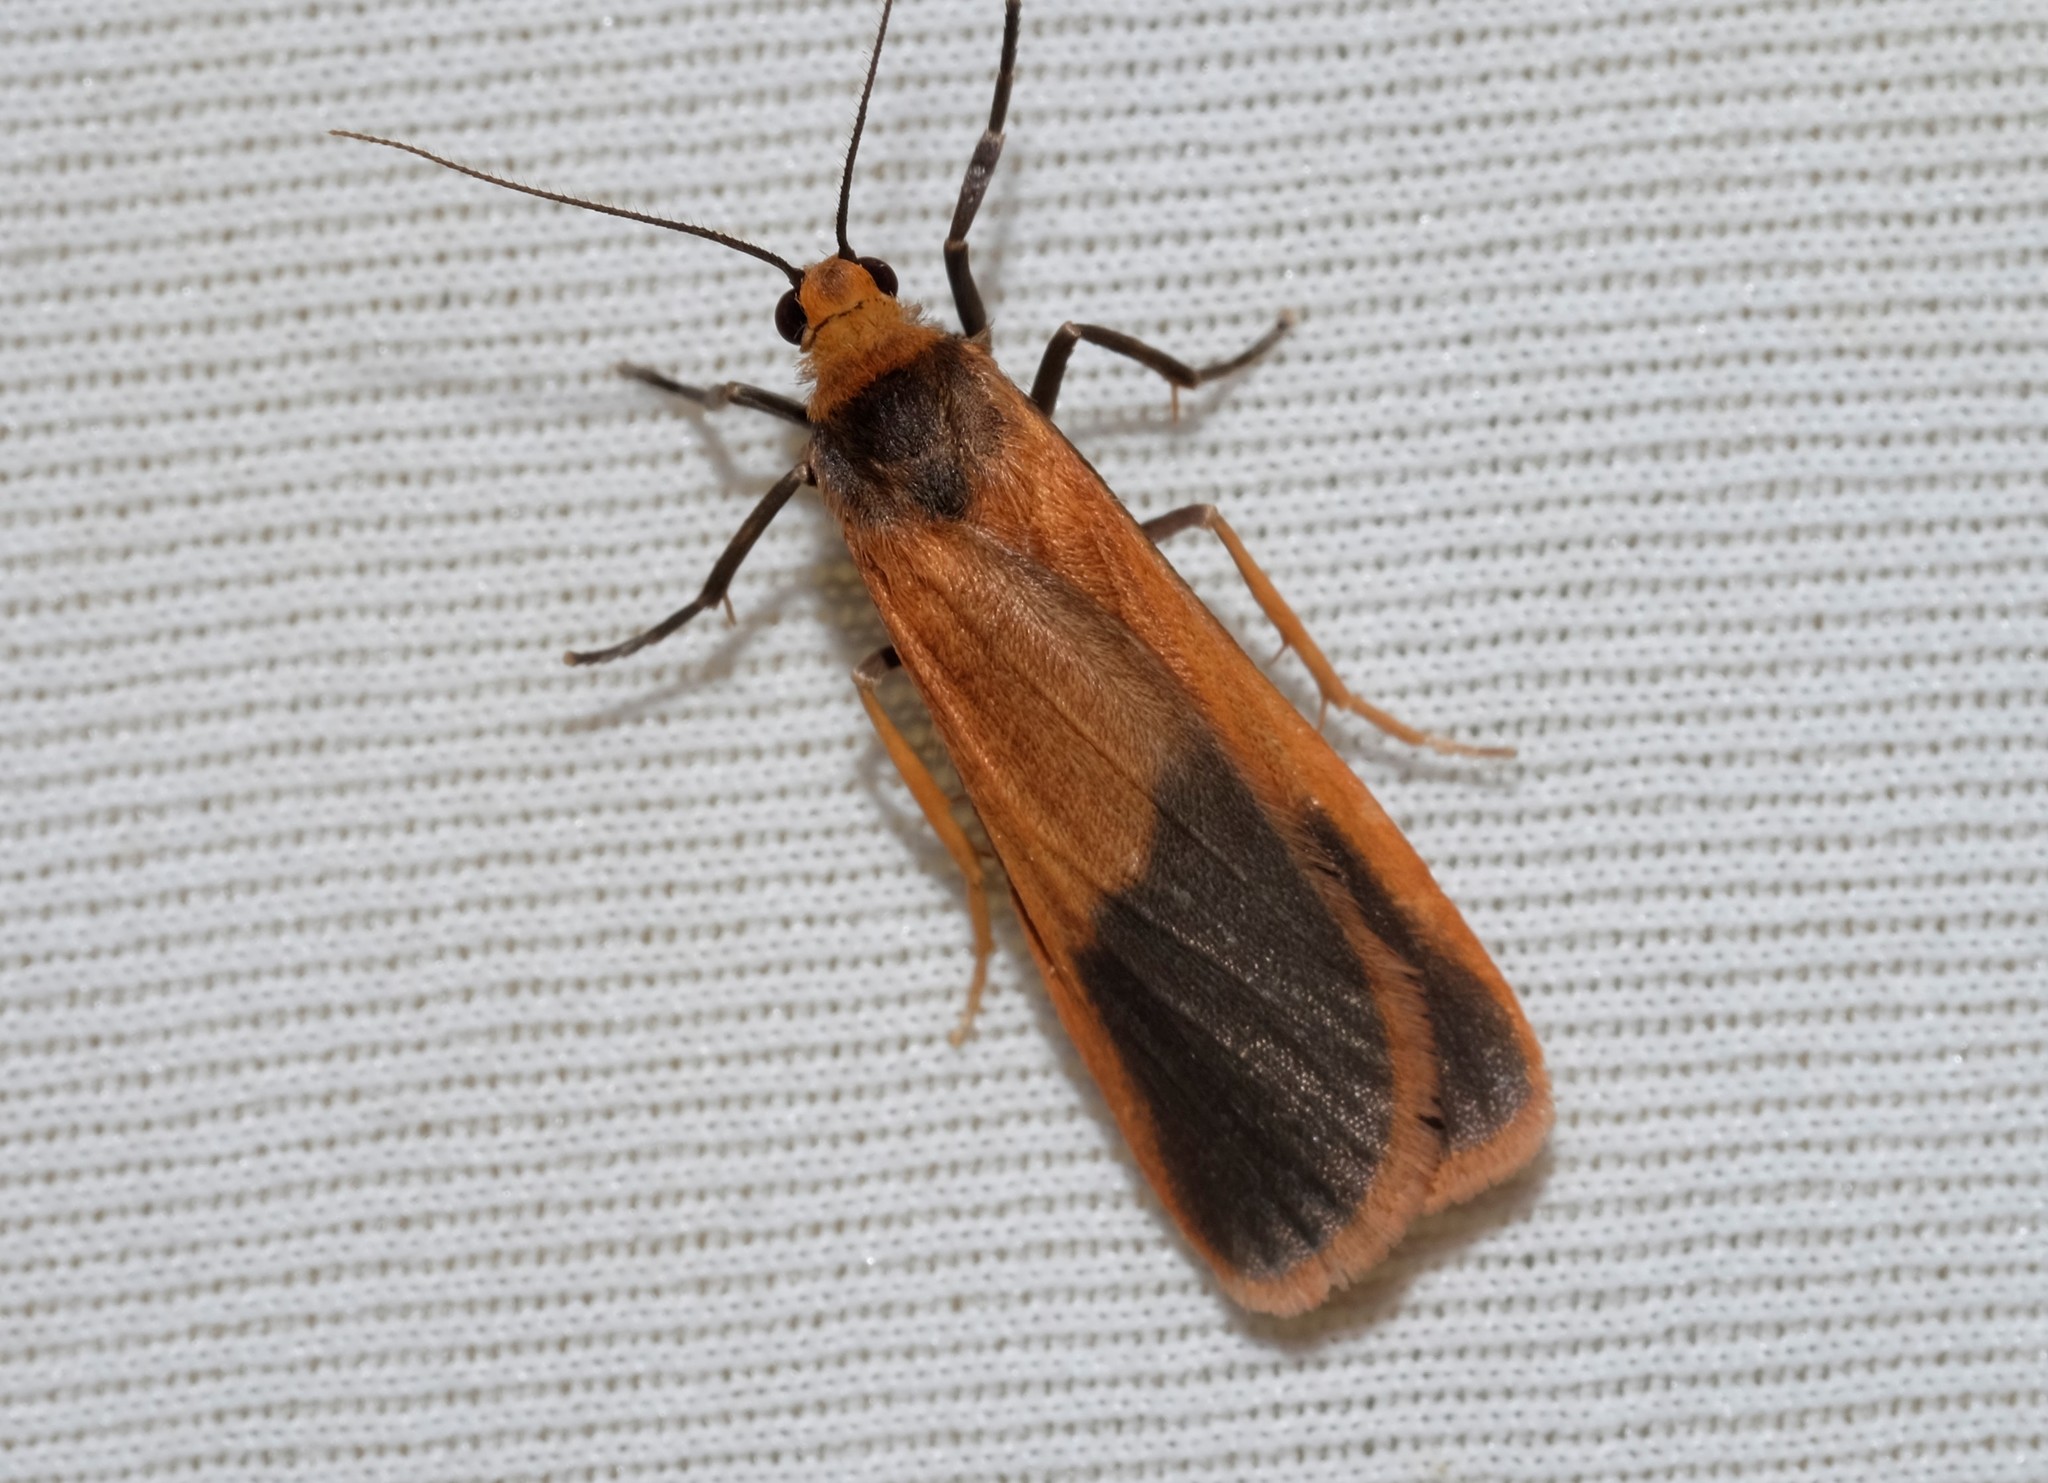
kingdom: Animalia
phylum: Arthropoda
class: Insecta
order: Lepidoptera
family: Erebidae
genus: Scoliacma
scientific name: Scoliacma bicolora
